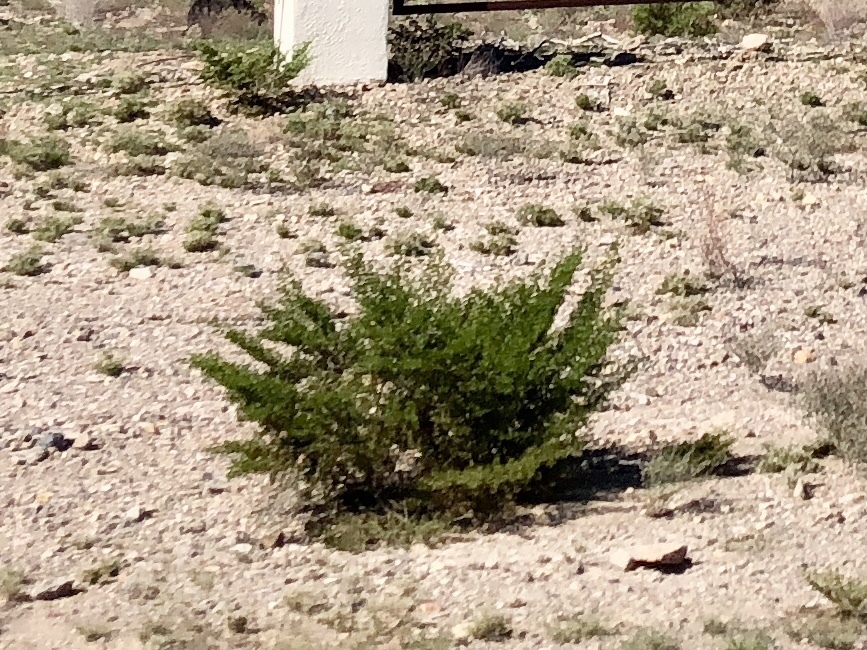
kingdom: Plantae
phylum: Tracheophyta
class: Magnoliopsida
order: Zygophyllales
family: Zygophyllaceae
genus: Larrea
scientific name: Larrea tridentata
